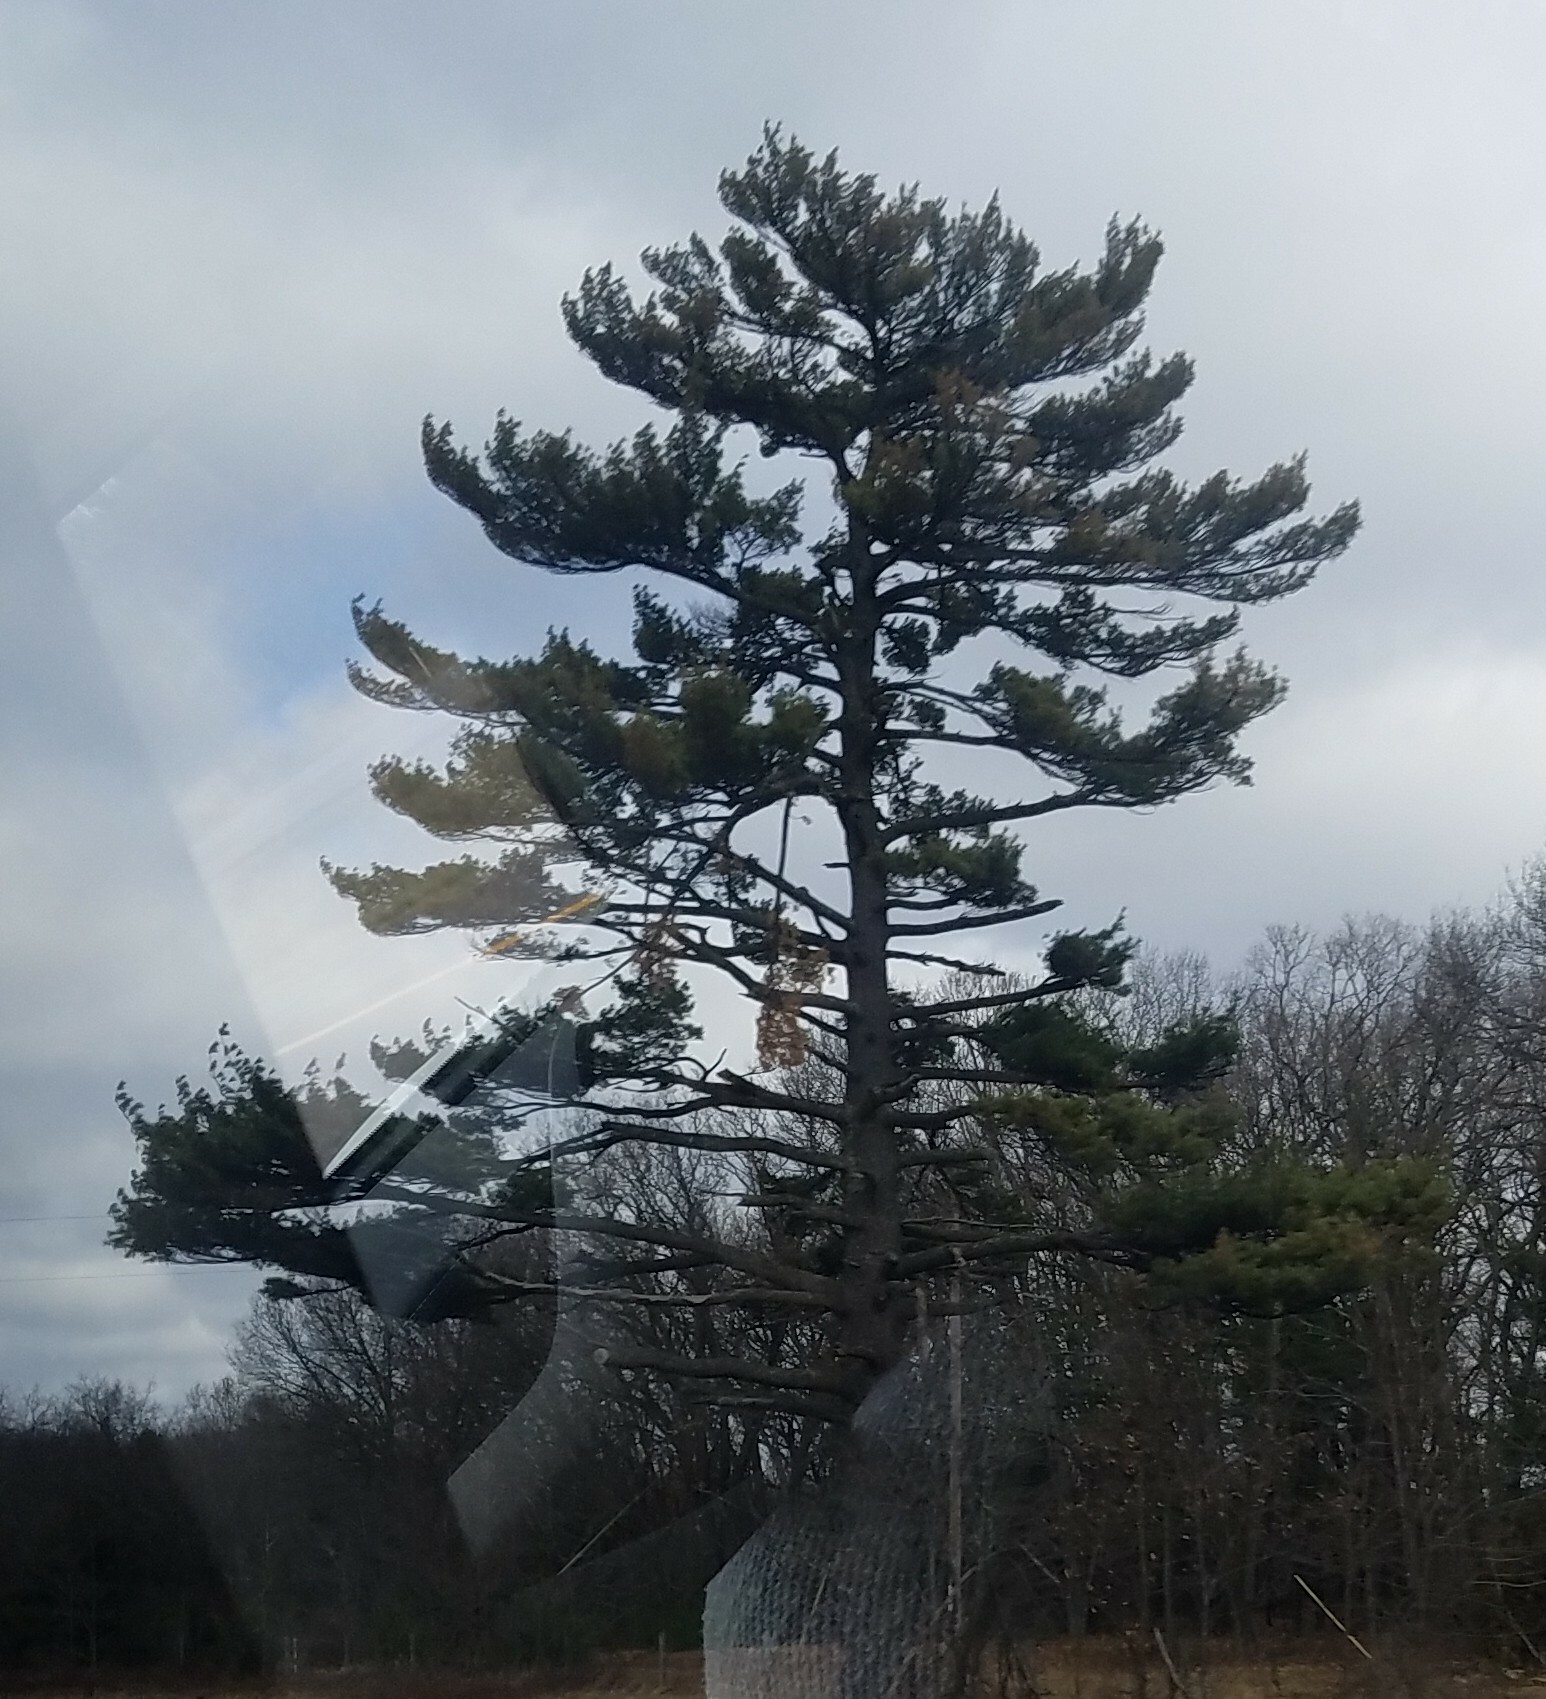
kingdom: Plantae
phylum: Tracheophyta
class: Pinopsida
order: Pinales
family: Pinaceae
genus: Pinus
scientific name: Pinus strobus
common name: Weymouth pine
